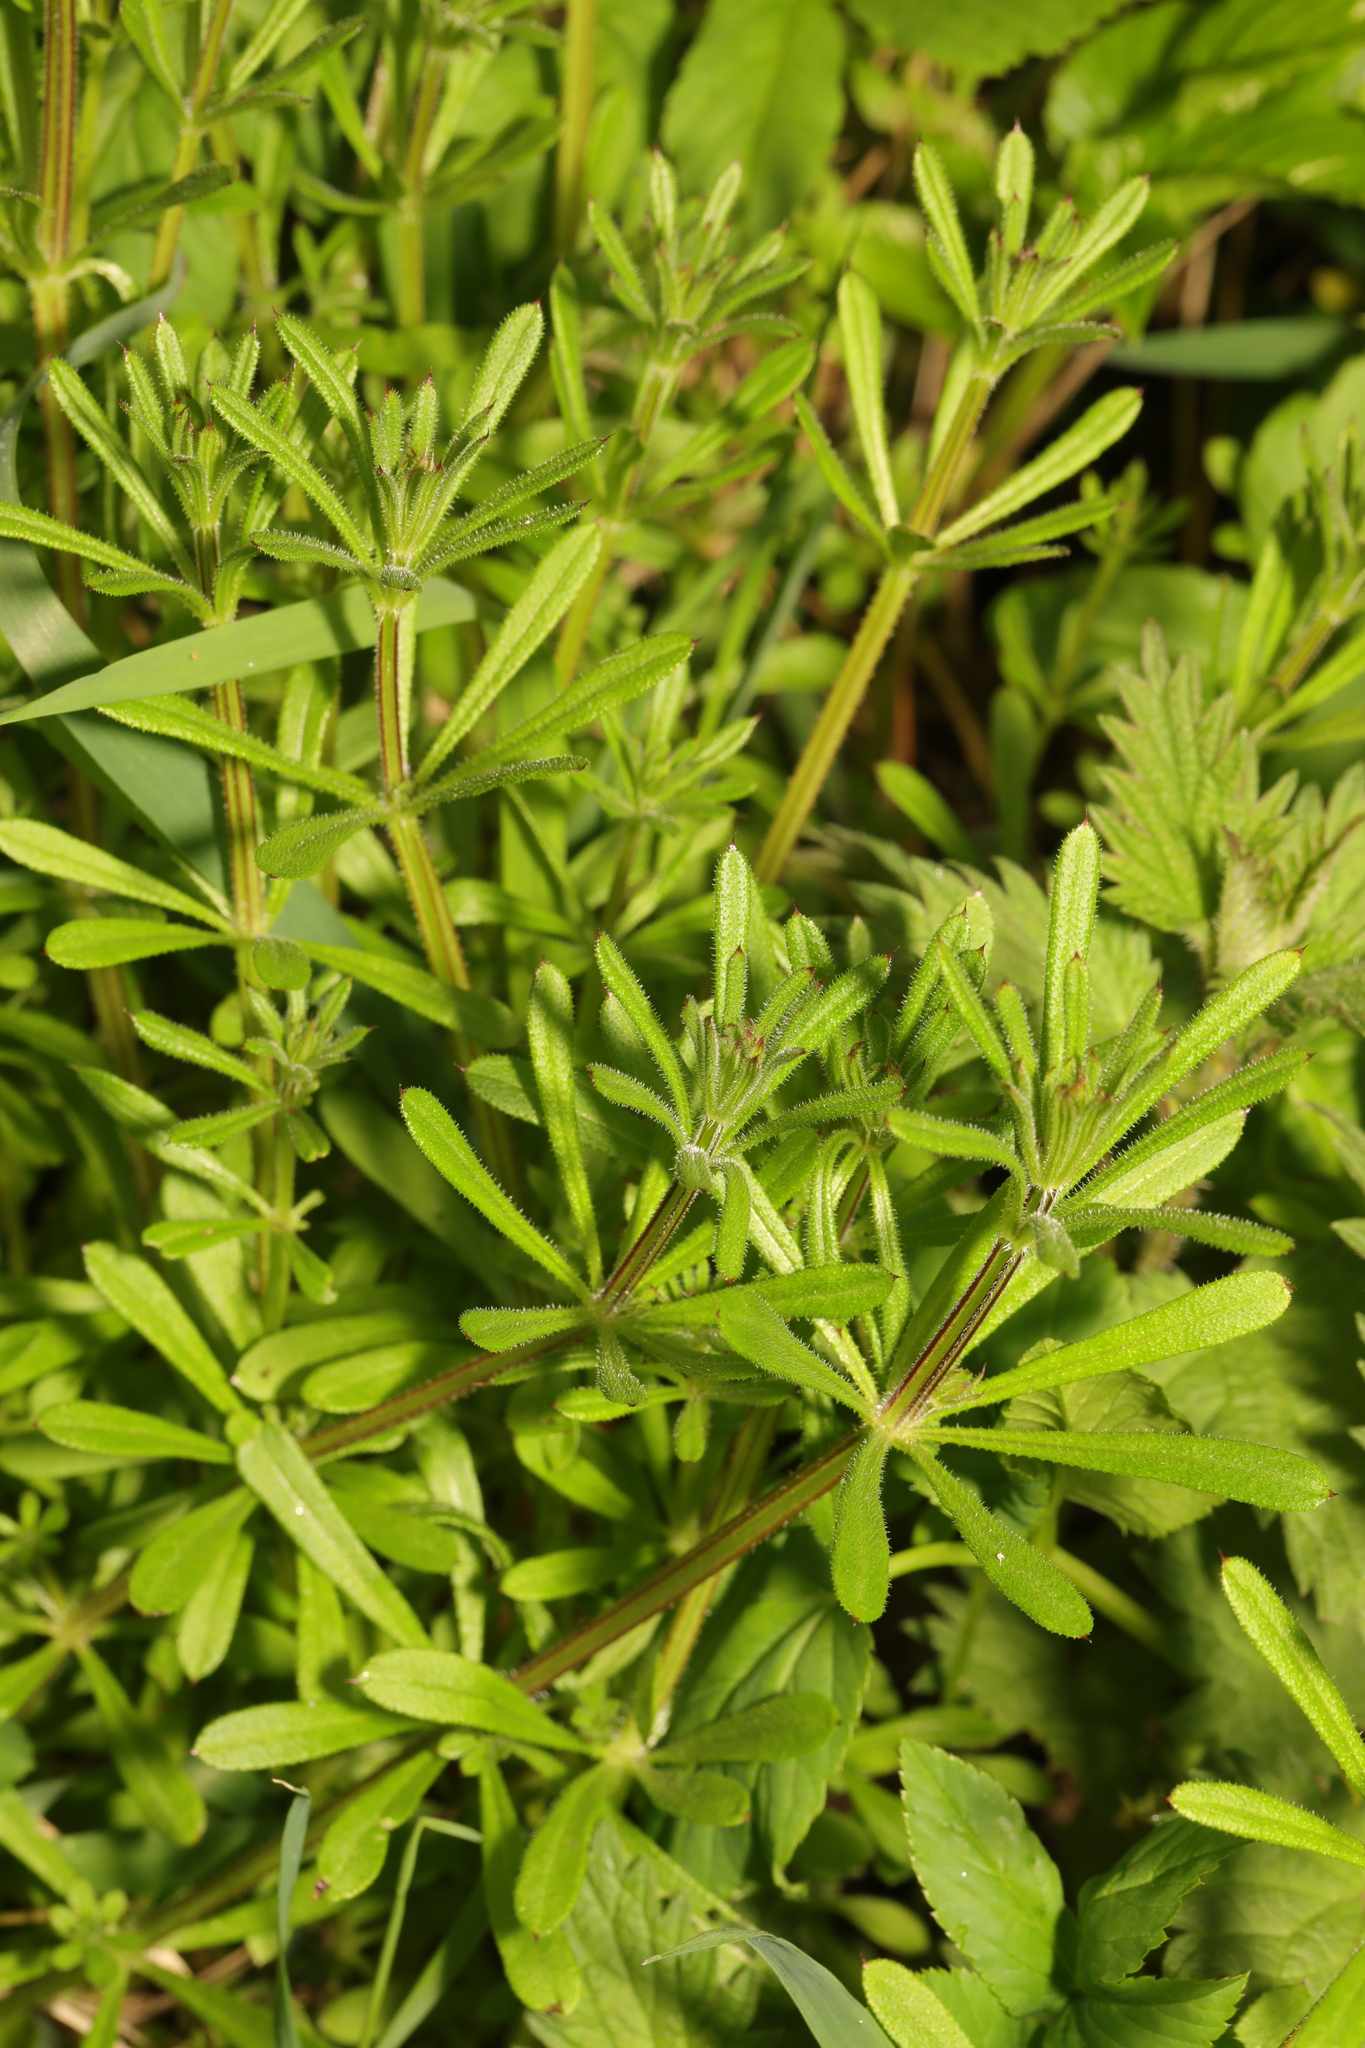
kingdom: Plantae
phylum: Tracheophyta
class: Magnoliopsida
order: Gentianales
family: Rubiaceae
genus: Galium
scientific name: Galium aparine
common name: Cleavers
